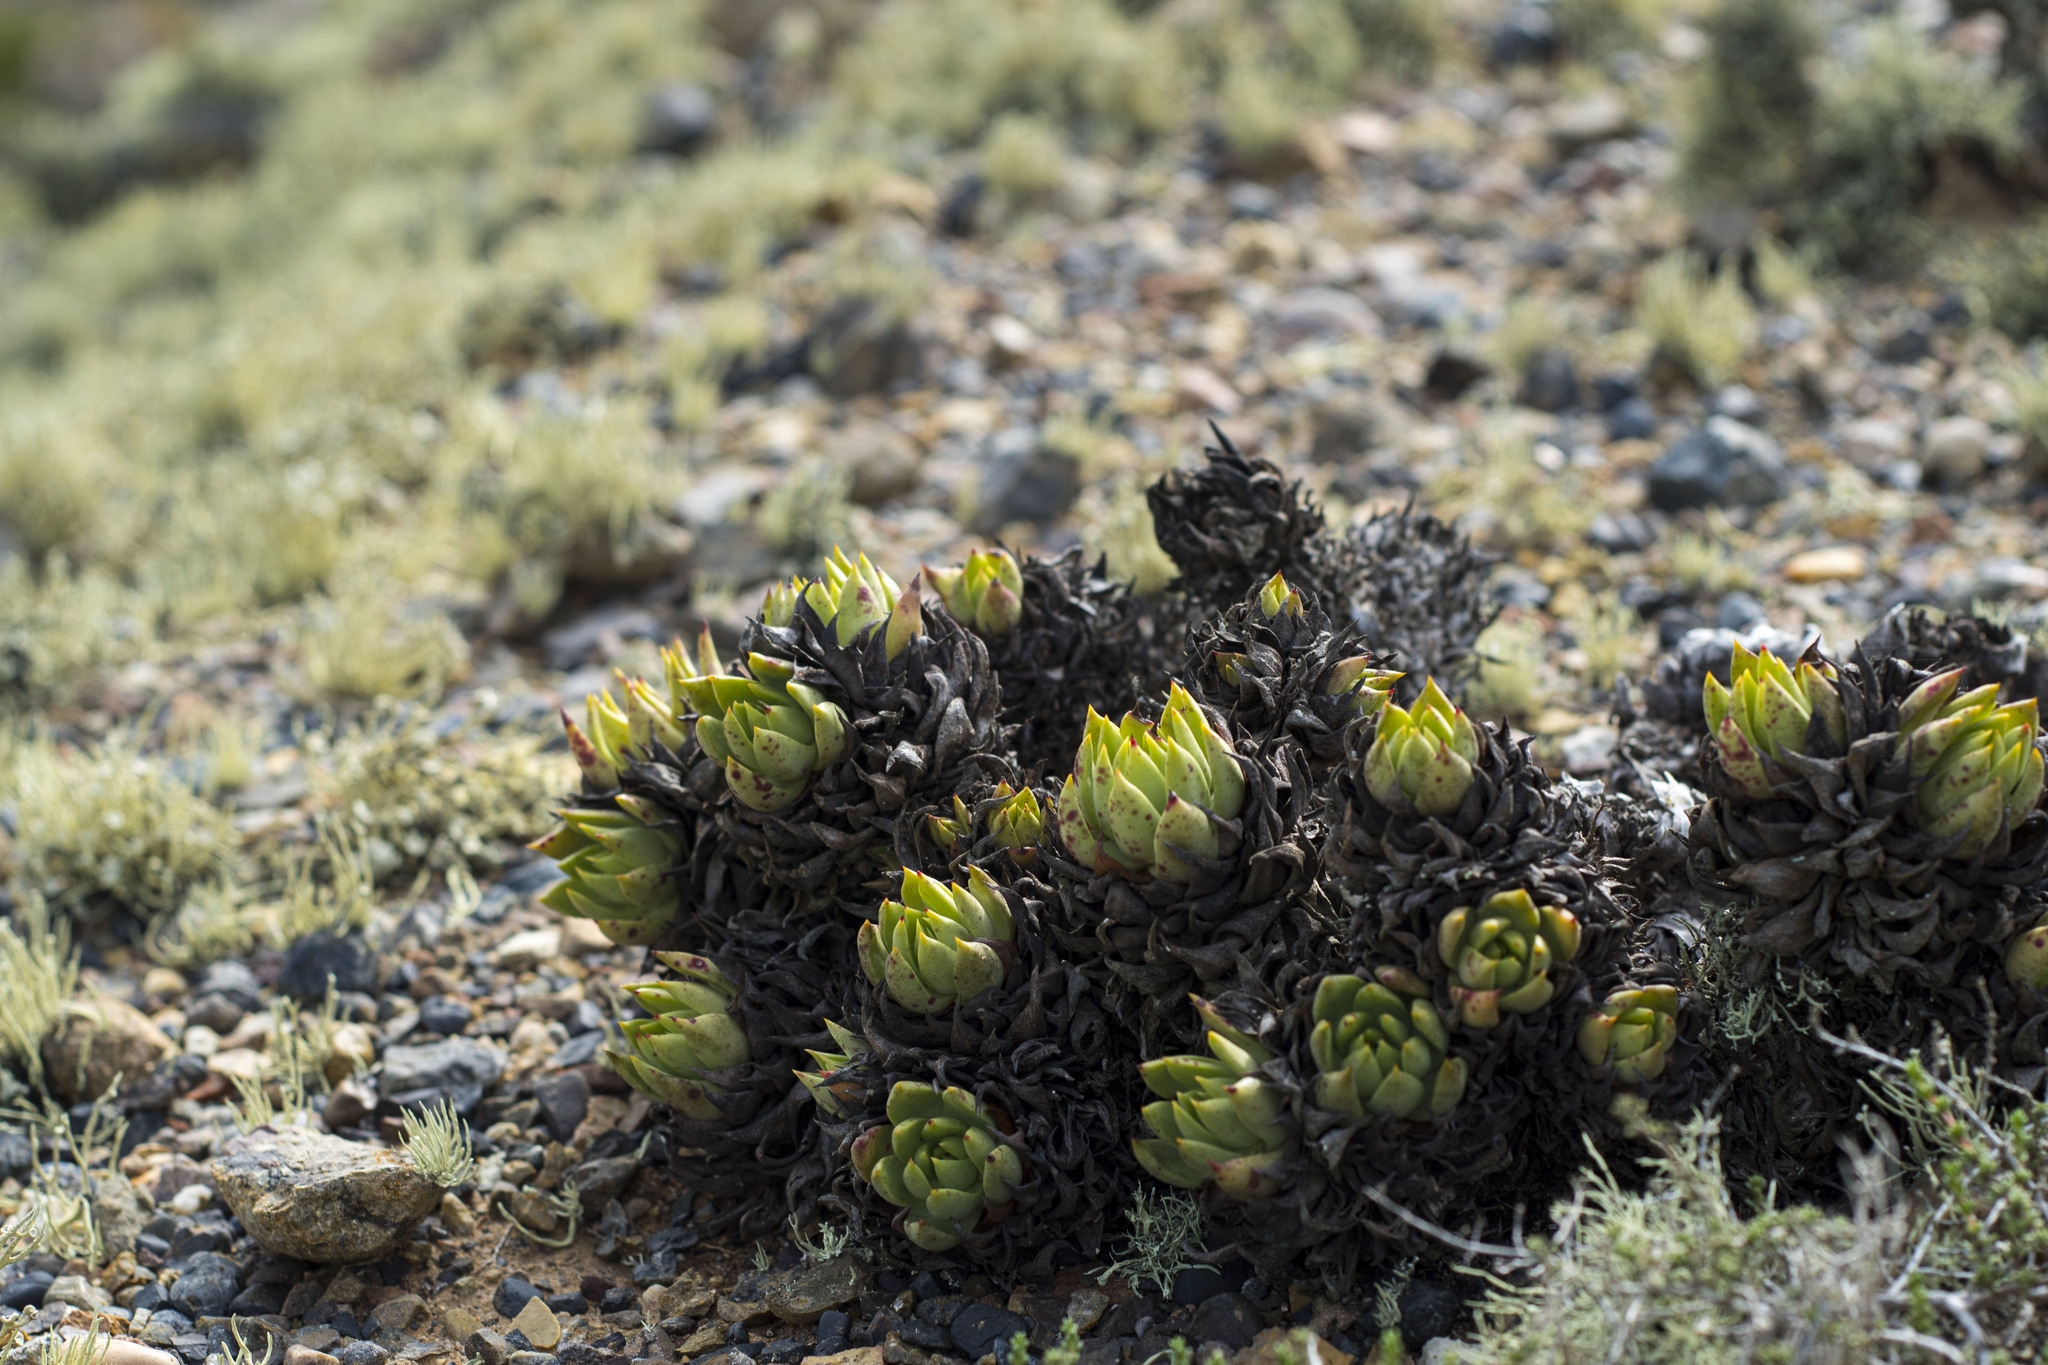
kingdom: Plantae
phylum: Tracheophyta
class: Magnoliopsida
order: Saxifragales
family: Crassulaceae
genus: Dudleya
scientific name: Dudleya
